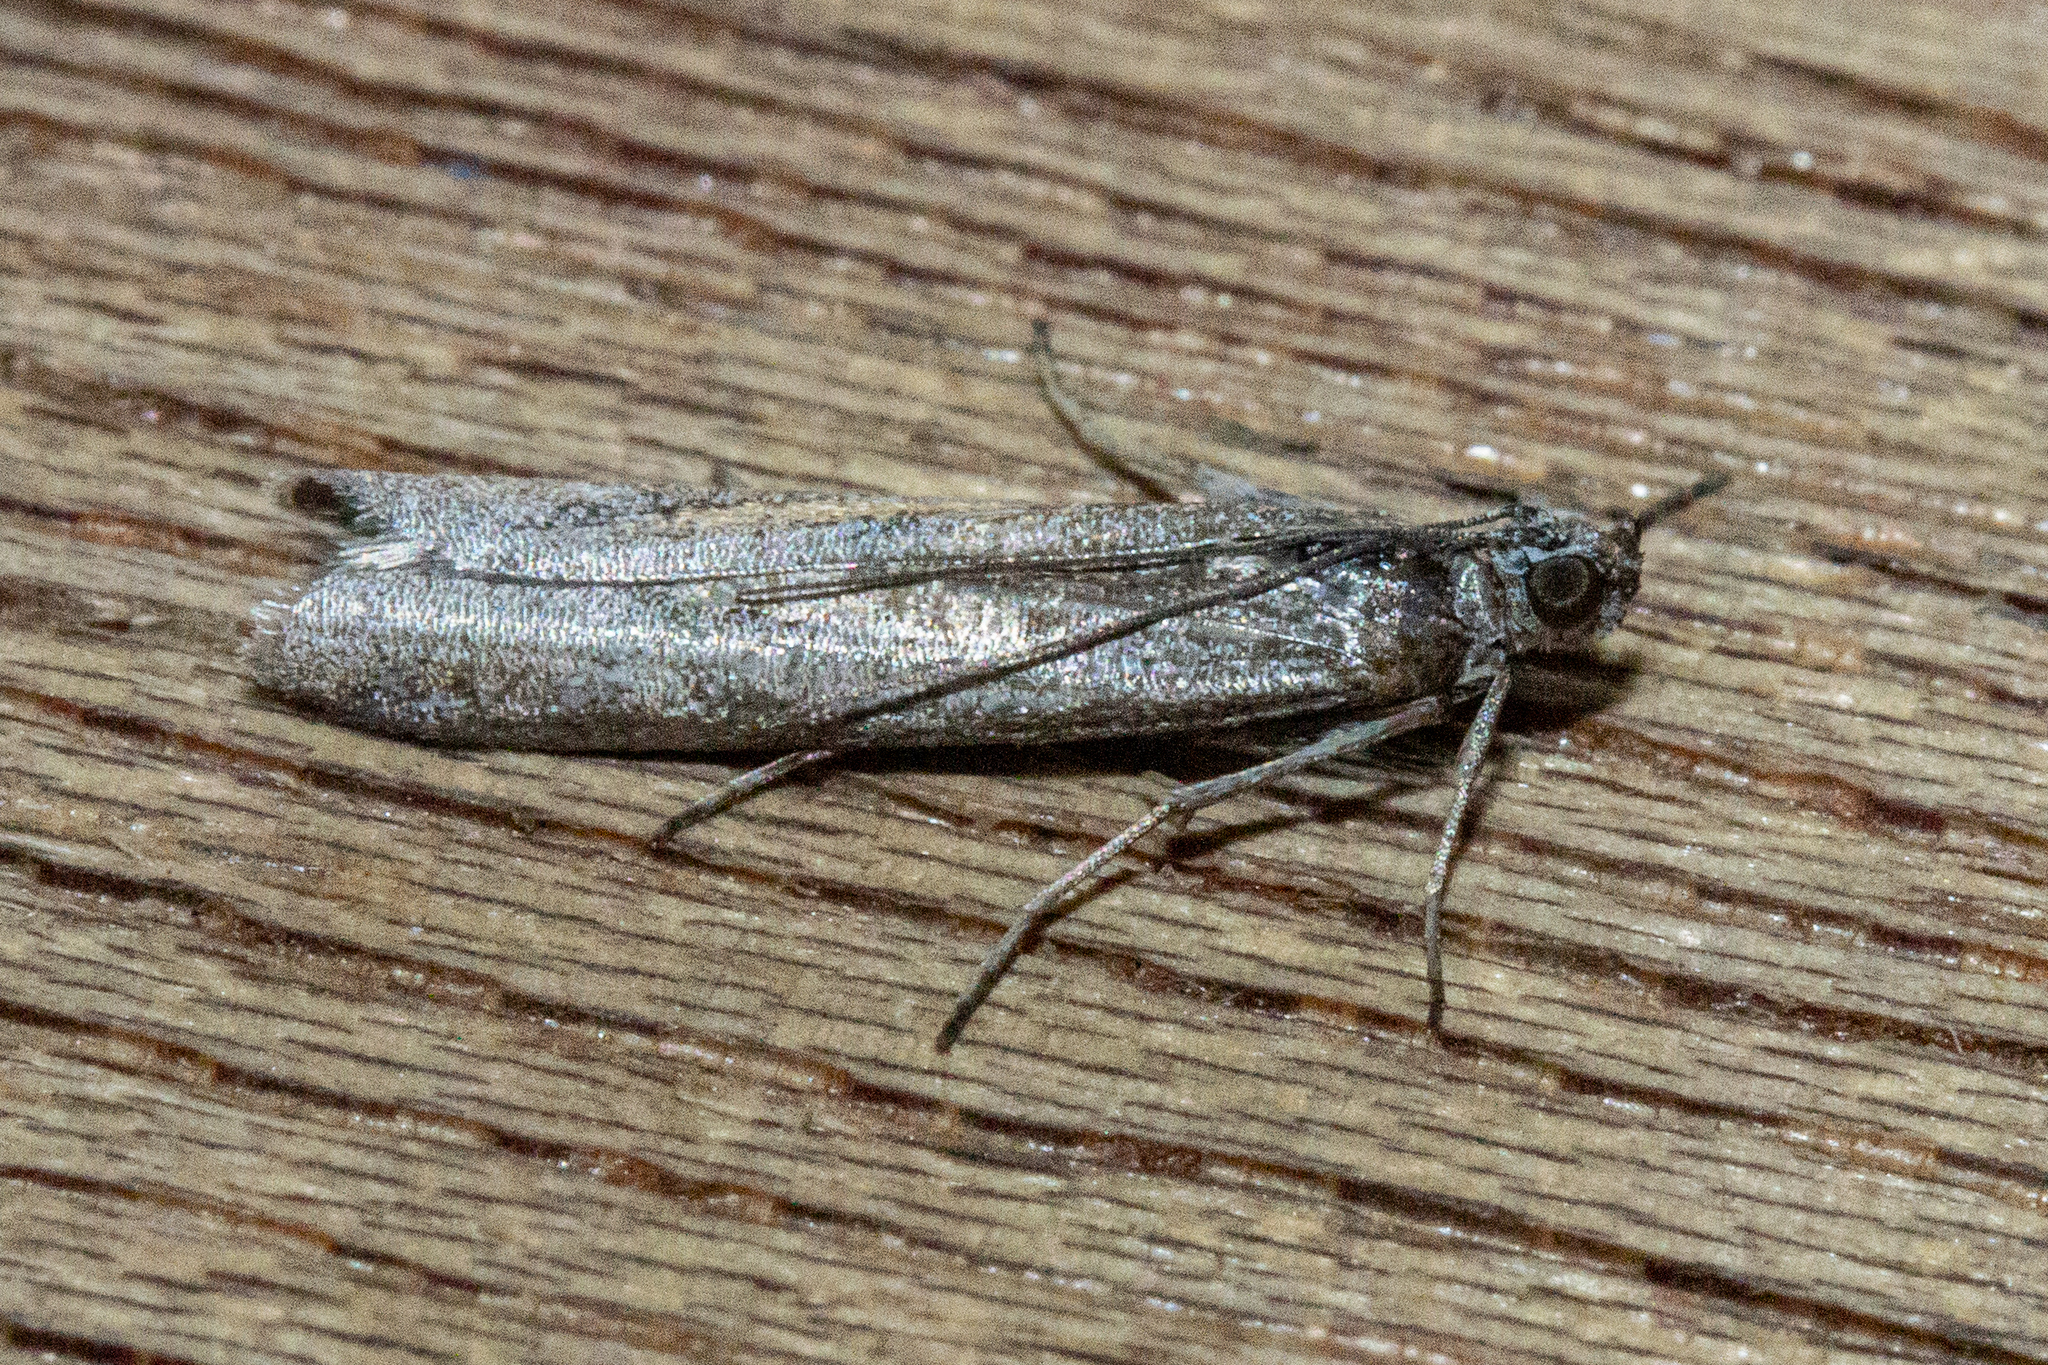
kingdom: Animalia
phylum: Arthropoda
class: Insecta
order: Lepidoptera
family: Pyralidae
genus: Patagoniodes
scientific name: Patagoniodes farinaria
